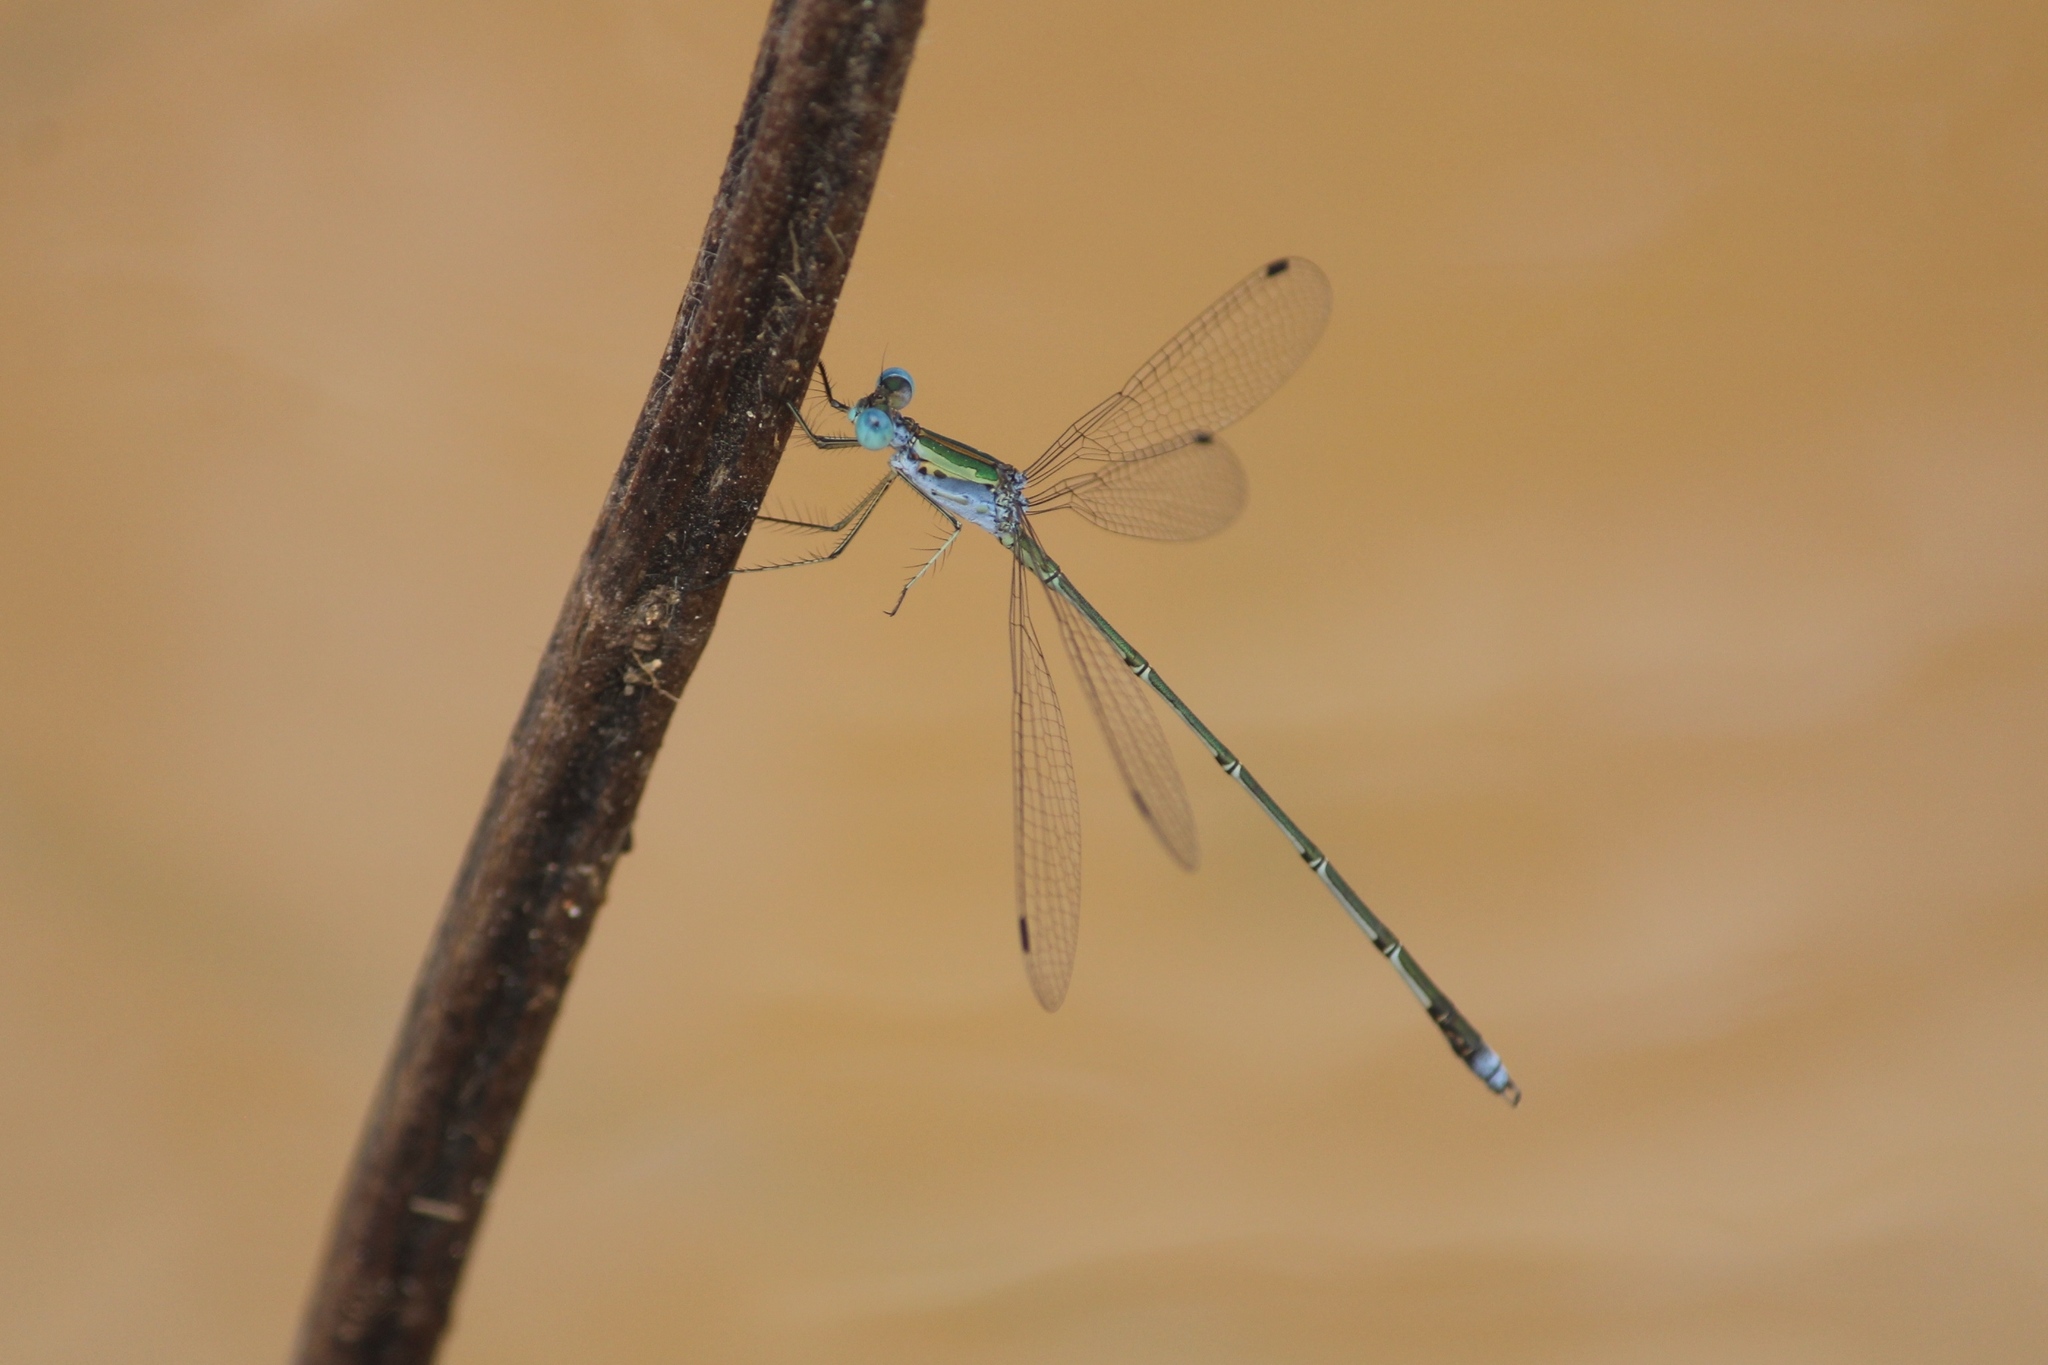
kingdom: Animalia
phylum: Arthropoda
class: Insecta
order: Odonata
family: Lestidae
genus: Lestes
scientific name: Lestes elatus
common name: Emerald spreadwing
